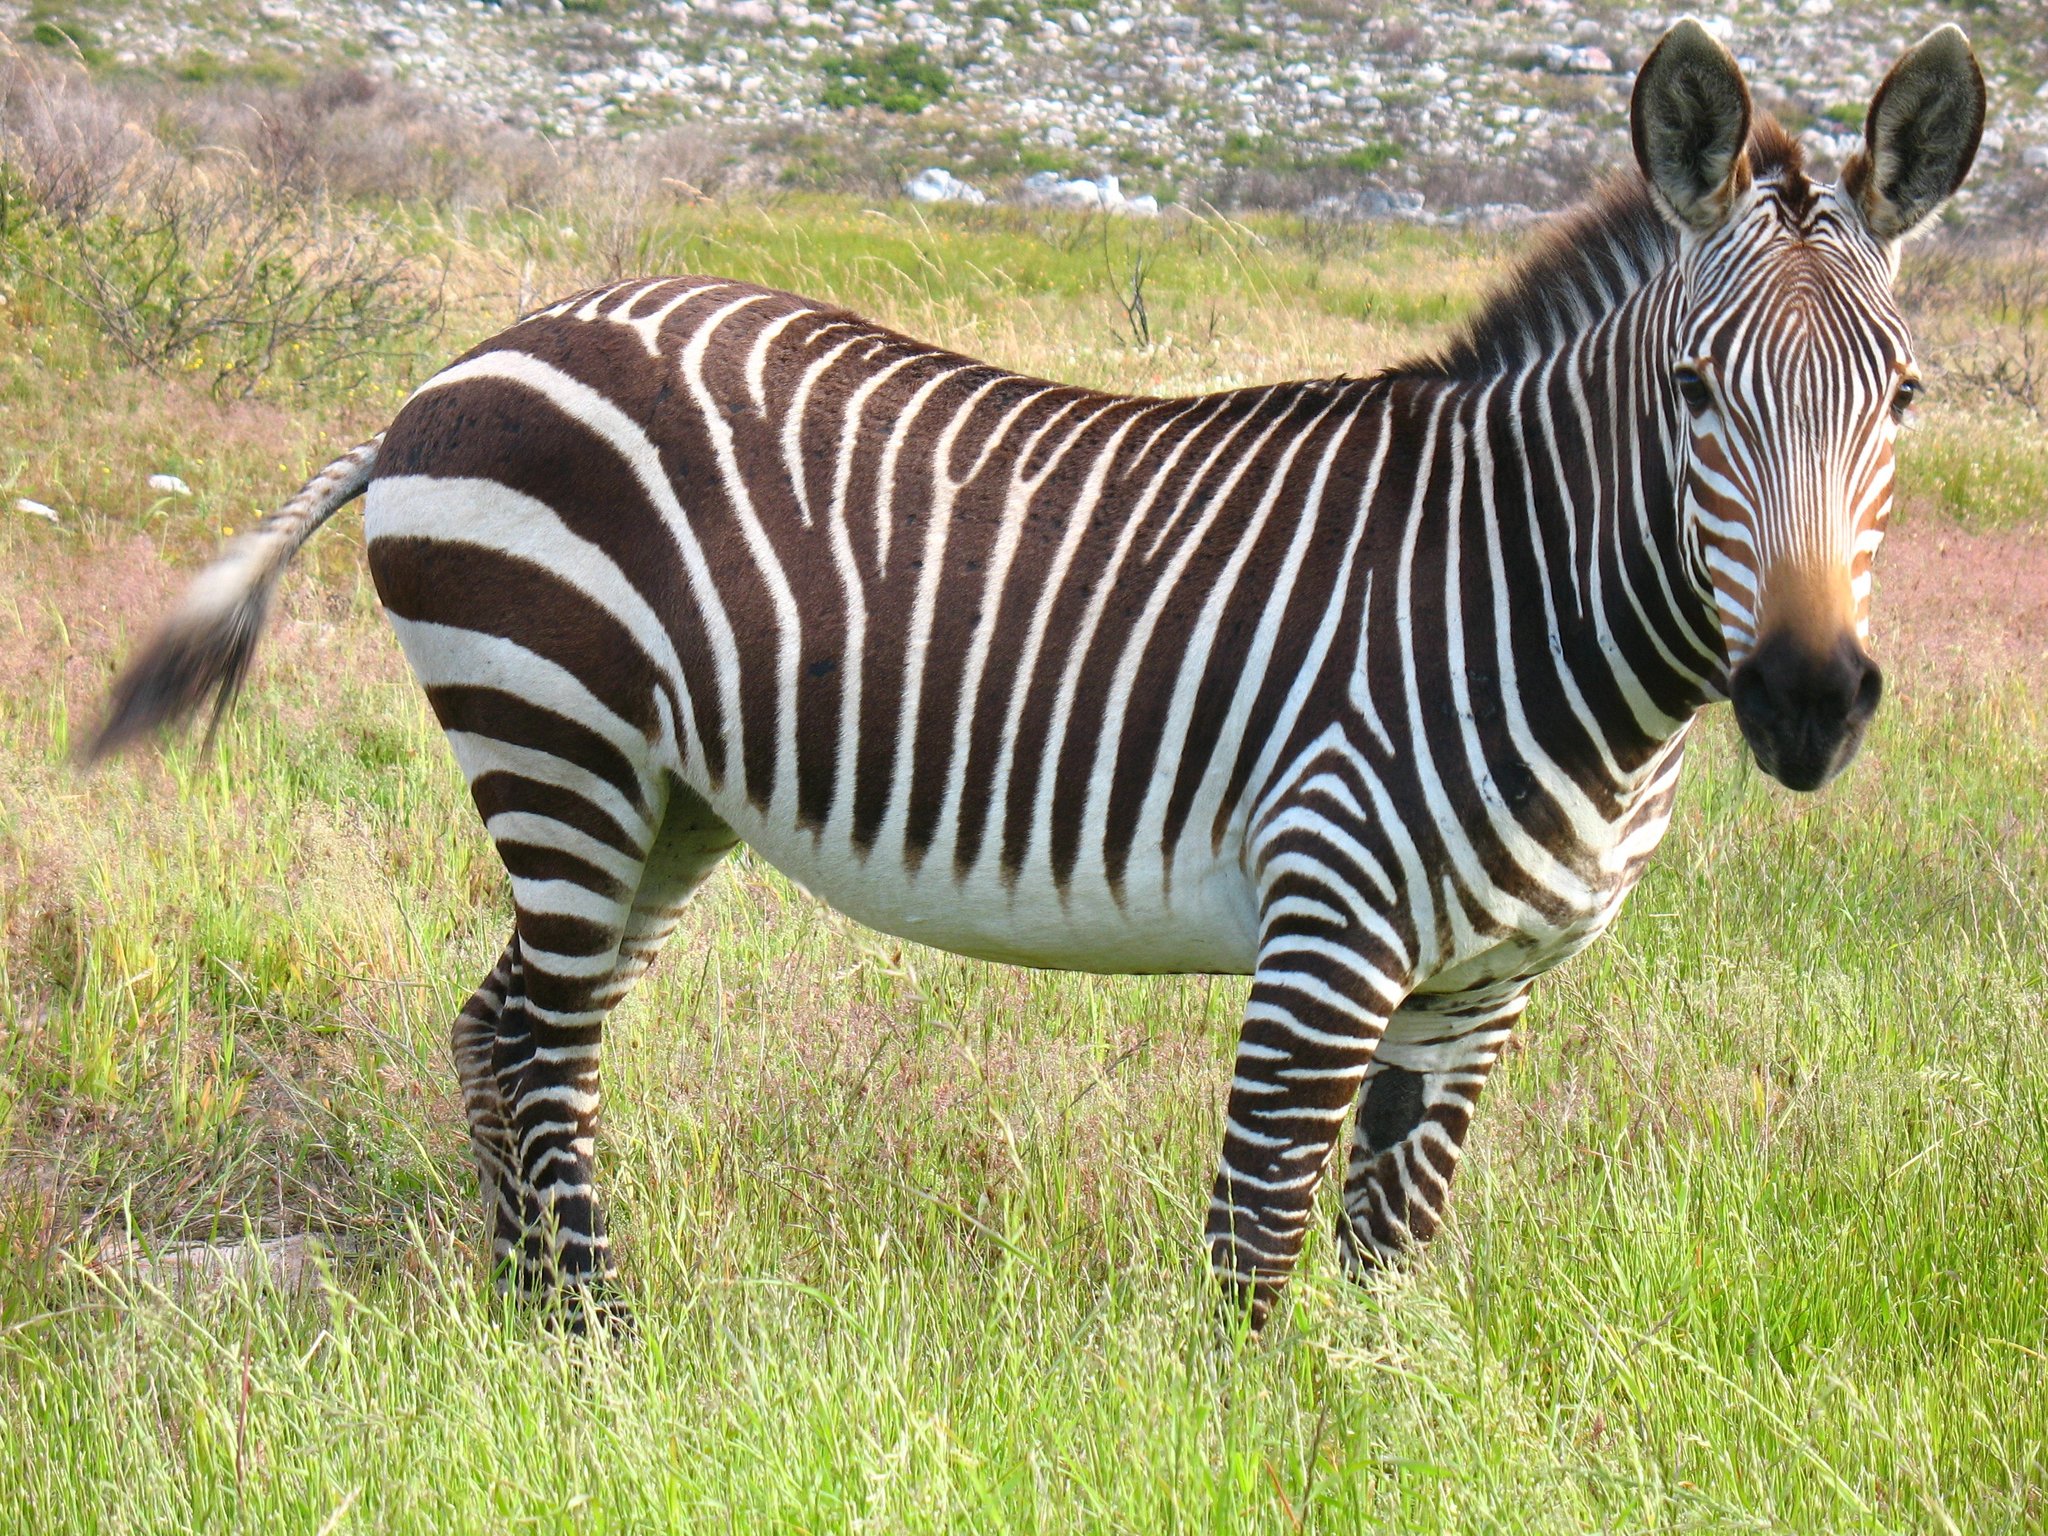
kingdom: Animalia
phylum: Chordata
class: Mammalia
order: Perissodactyla
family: Equidae
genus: Equus
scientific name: Equus zebra
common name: Mountain zebra
